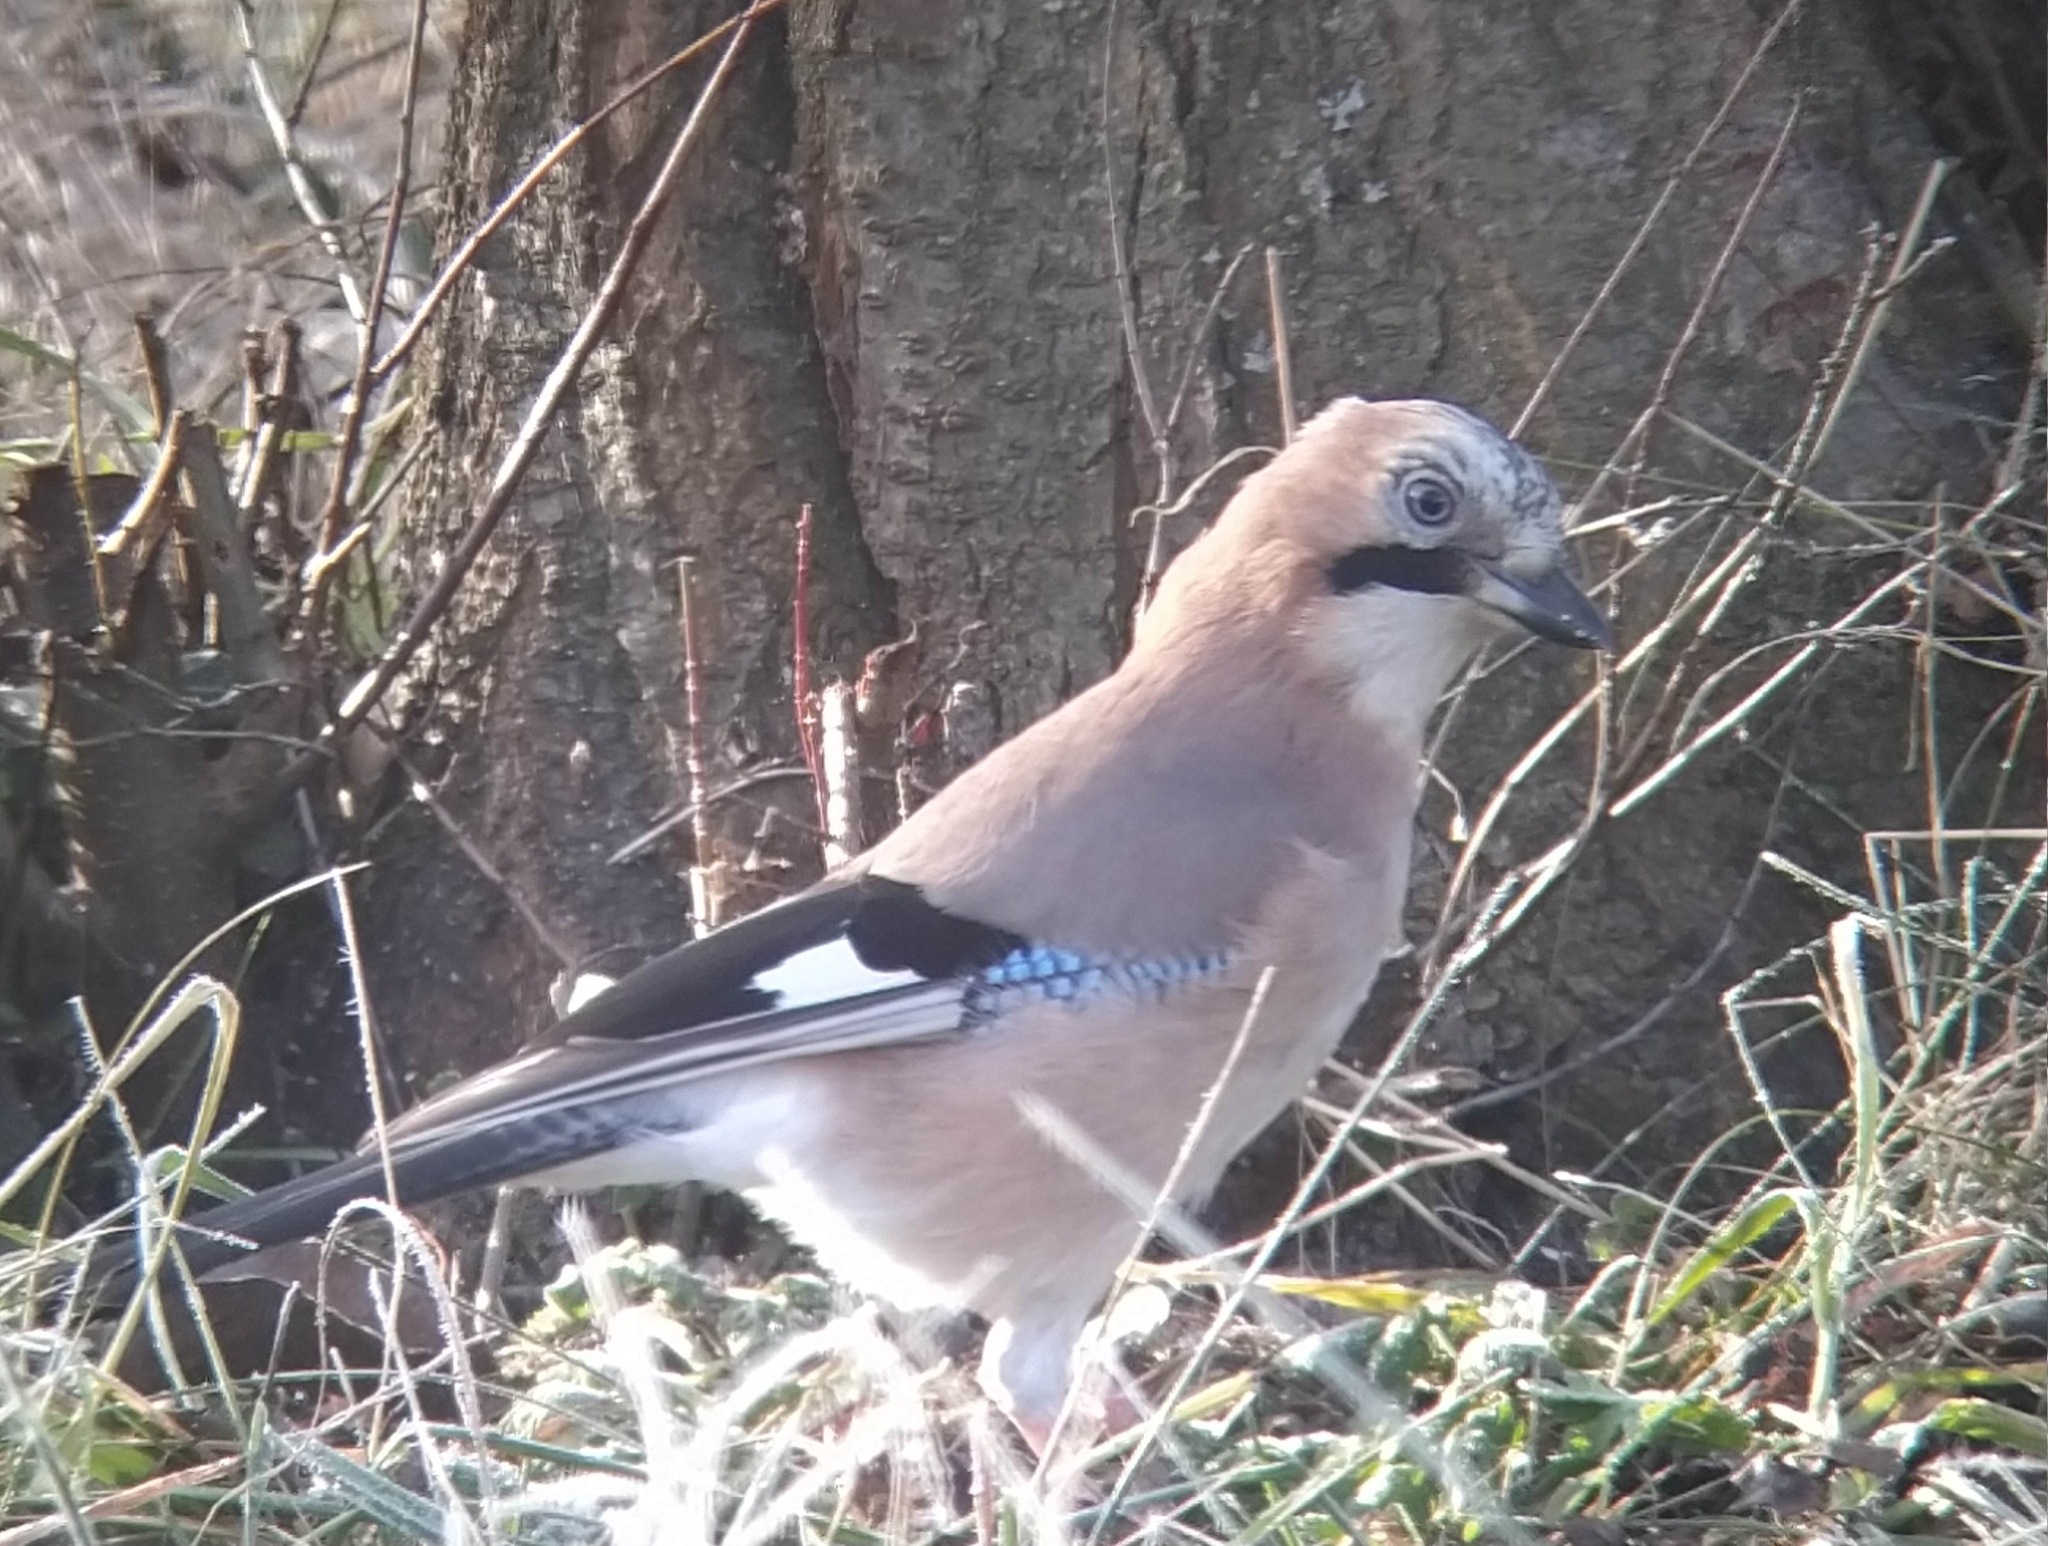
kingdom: Animalia
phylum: Chordata
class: Aves
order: Passeriformes
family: Corvidae
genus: Garrulus
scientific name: Garrulus glandarius
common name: Eurasian jay
